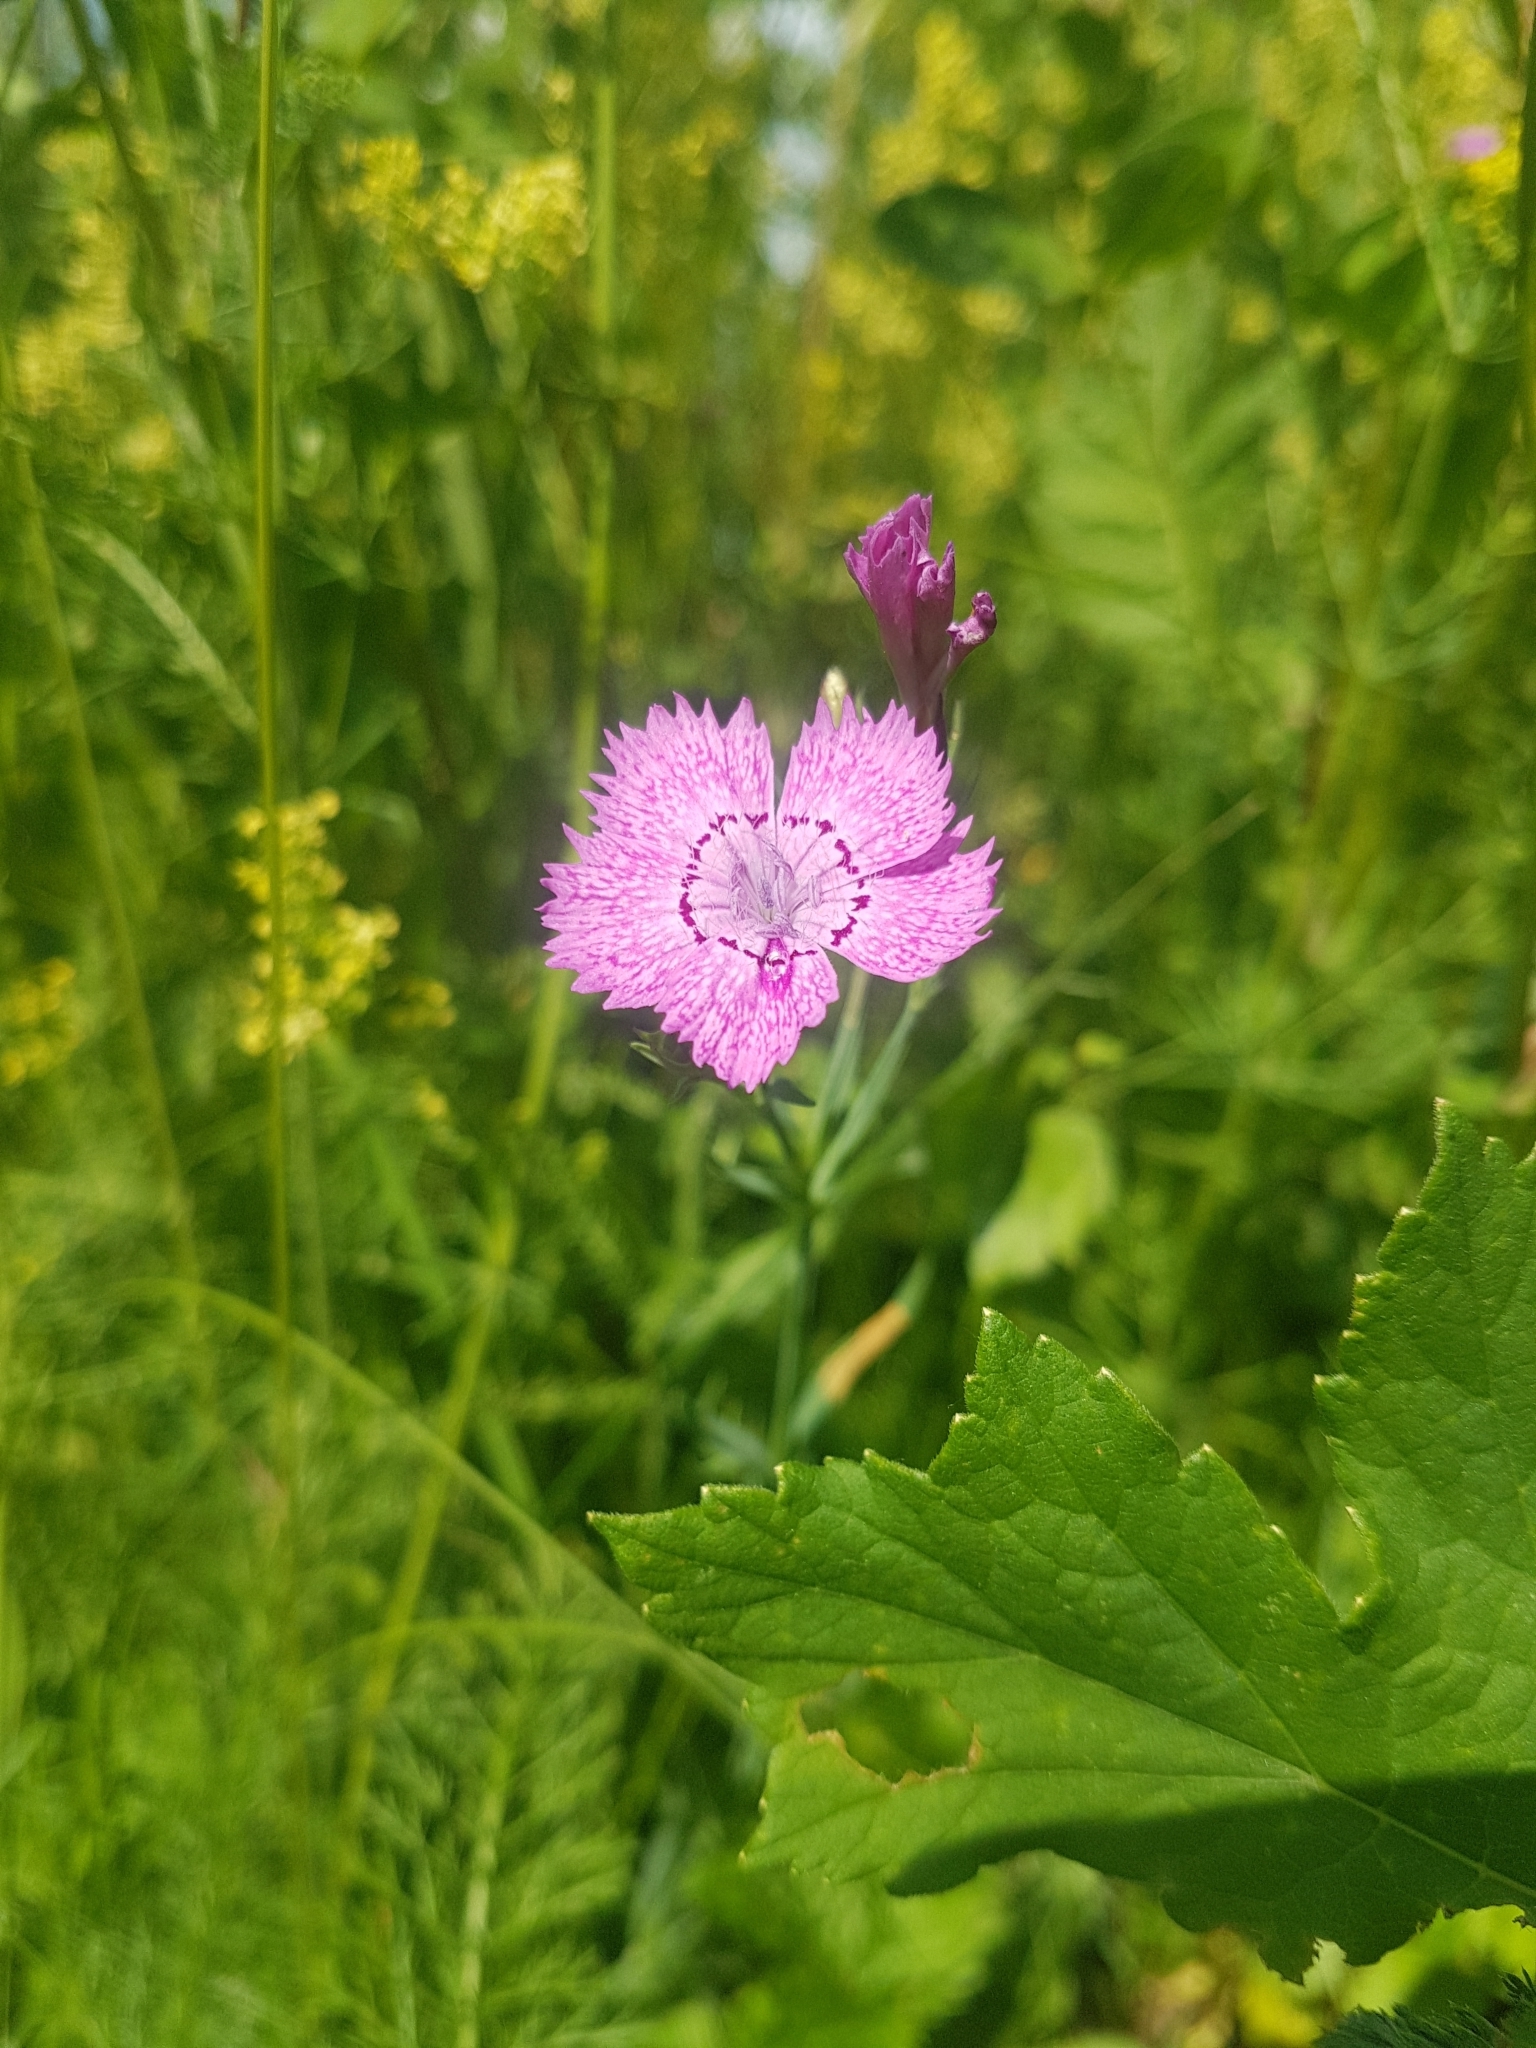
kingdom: Plantae
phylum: Tracheophyta
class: Magnoliopsida
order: Caryophyllales
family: Caryophyllaceae
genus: Dianthus
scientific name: Dianthus chinensis
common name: Rainbow pink
